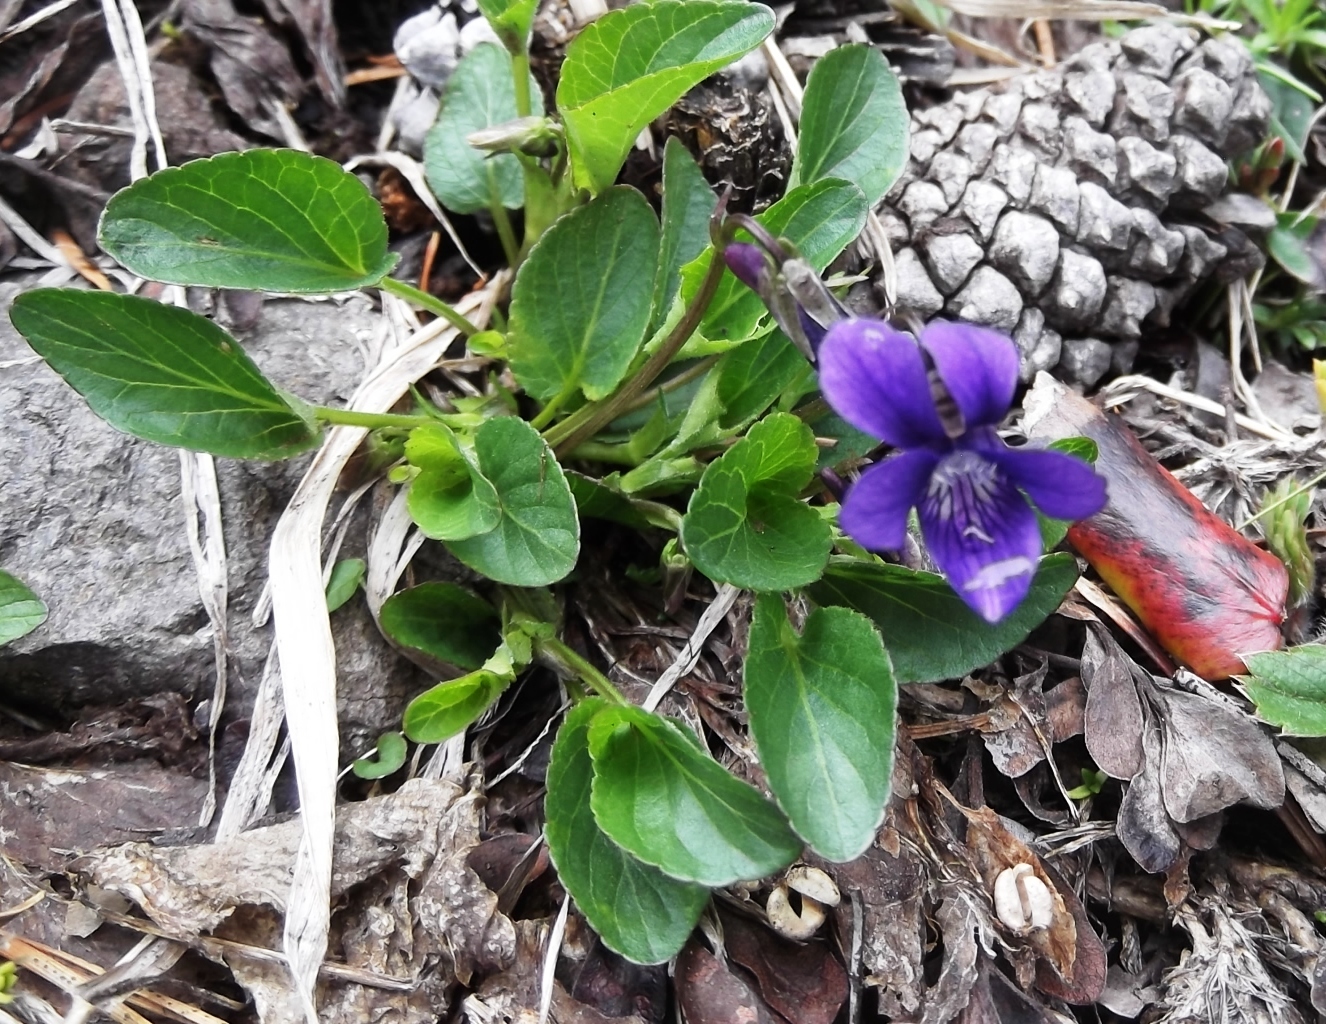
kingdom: Plantae
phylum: Tracheophyta
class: Magnoliopsida
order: Malpighiales
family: Violaceae
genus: Viola
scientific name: Viola adunca
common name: Sand violet
